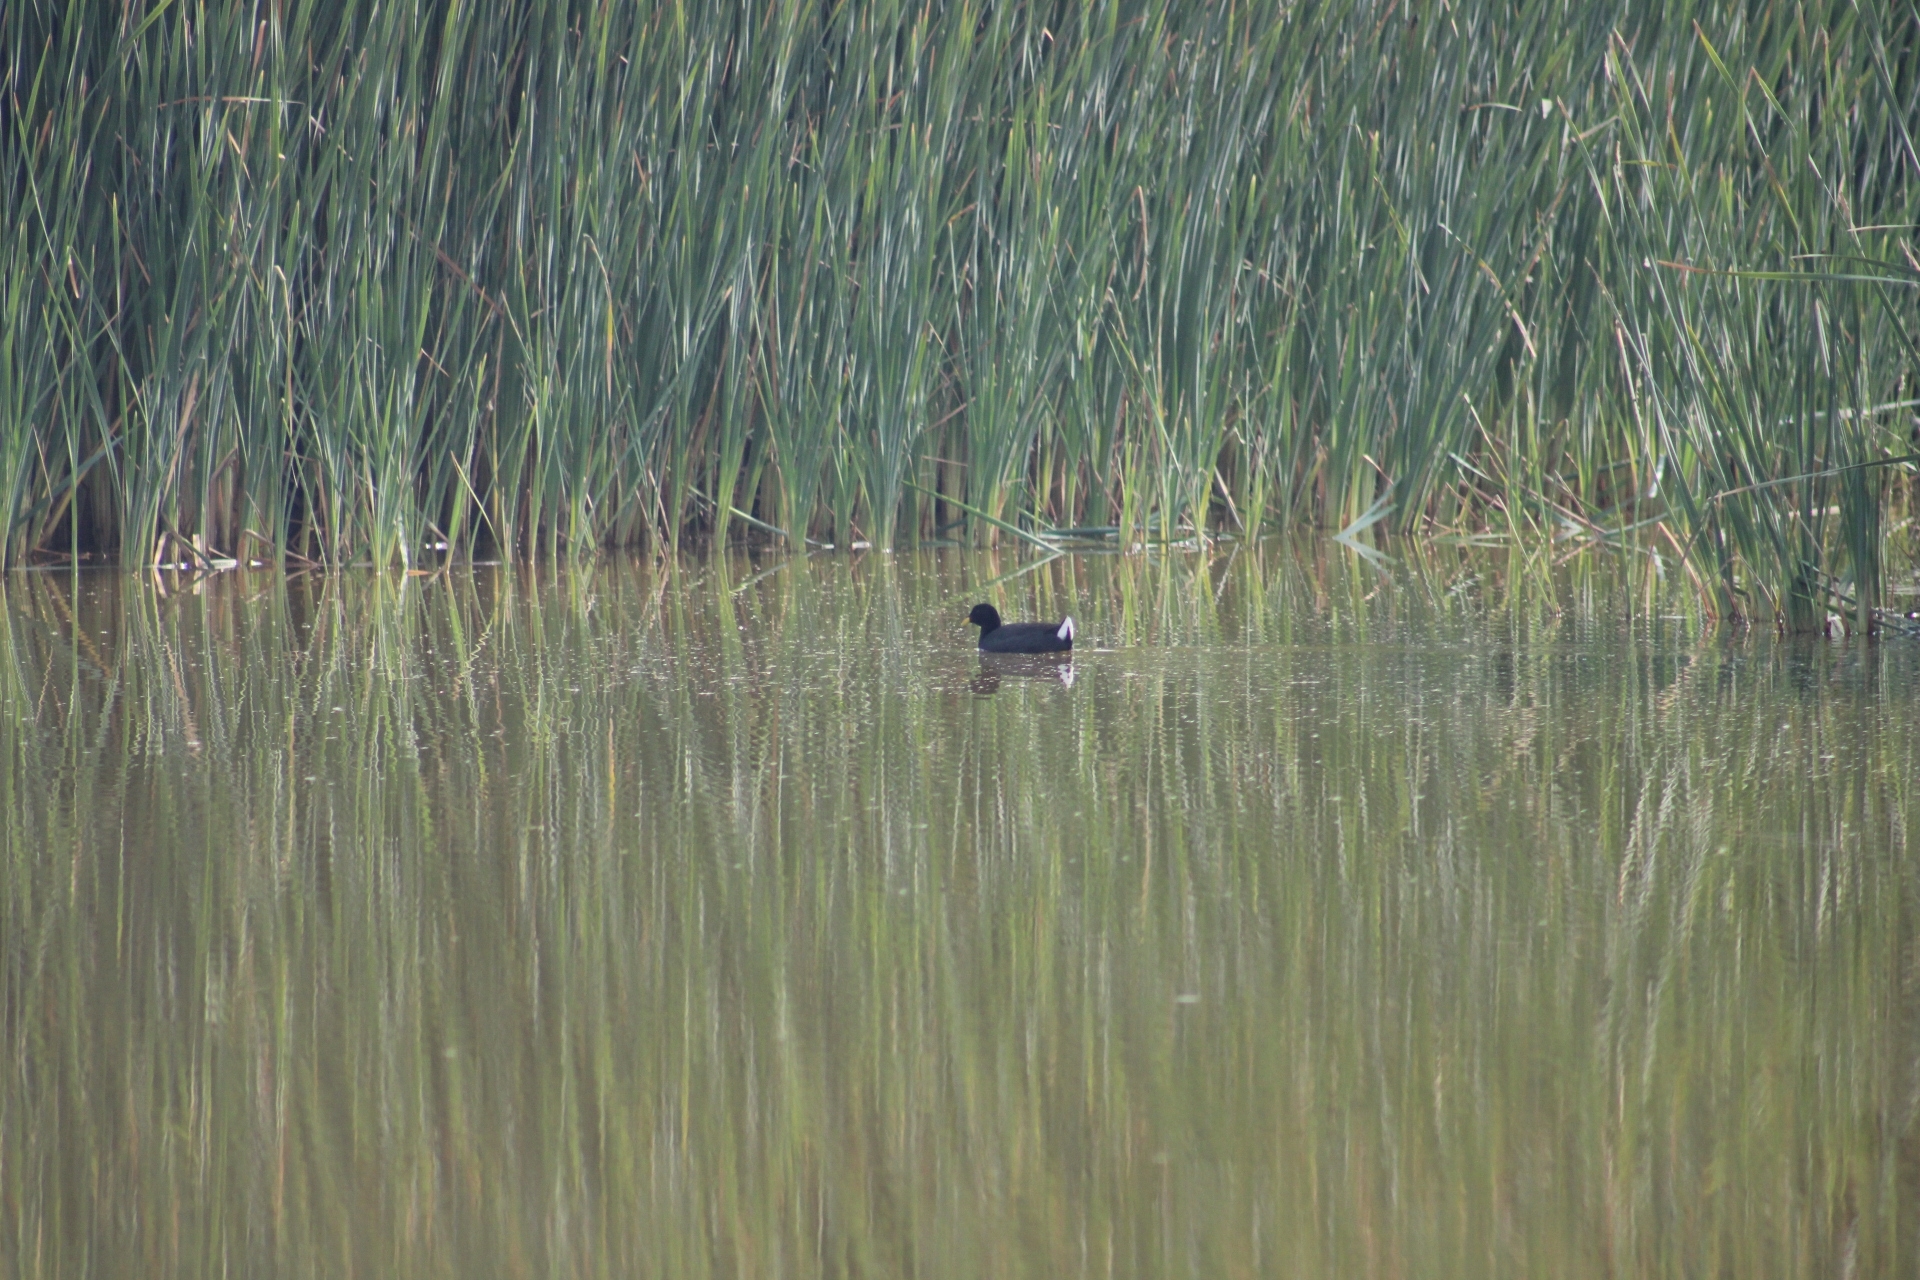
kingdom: Animalia
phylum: Chordata
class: Aves
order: Gruiformes
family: Rallidae
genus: Fulica
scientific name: Fulica rufifrons
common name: Red-fronted coot
